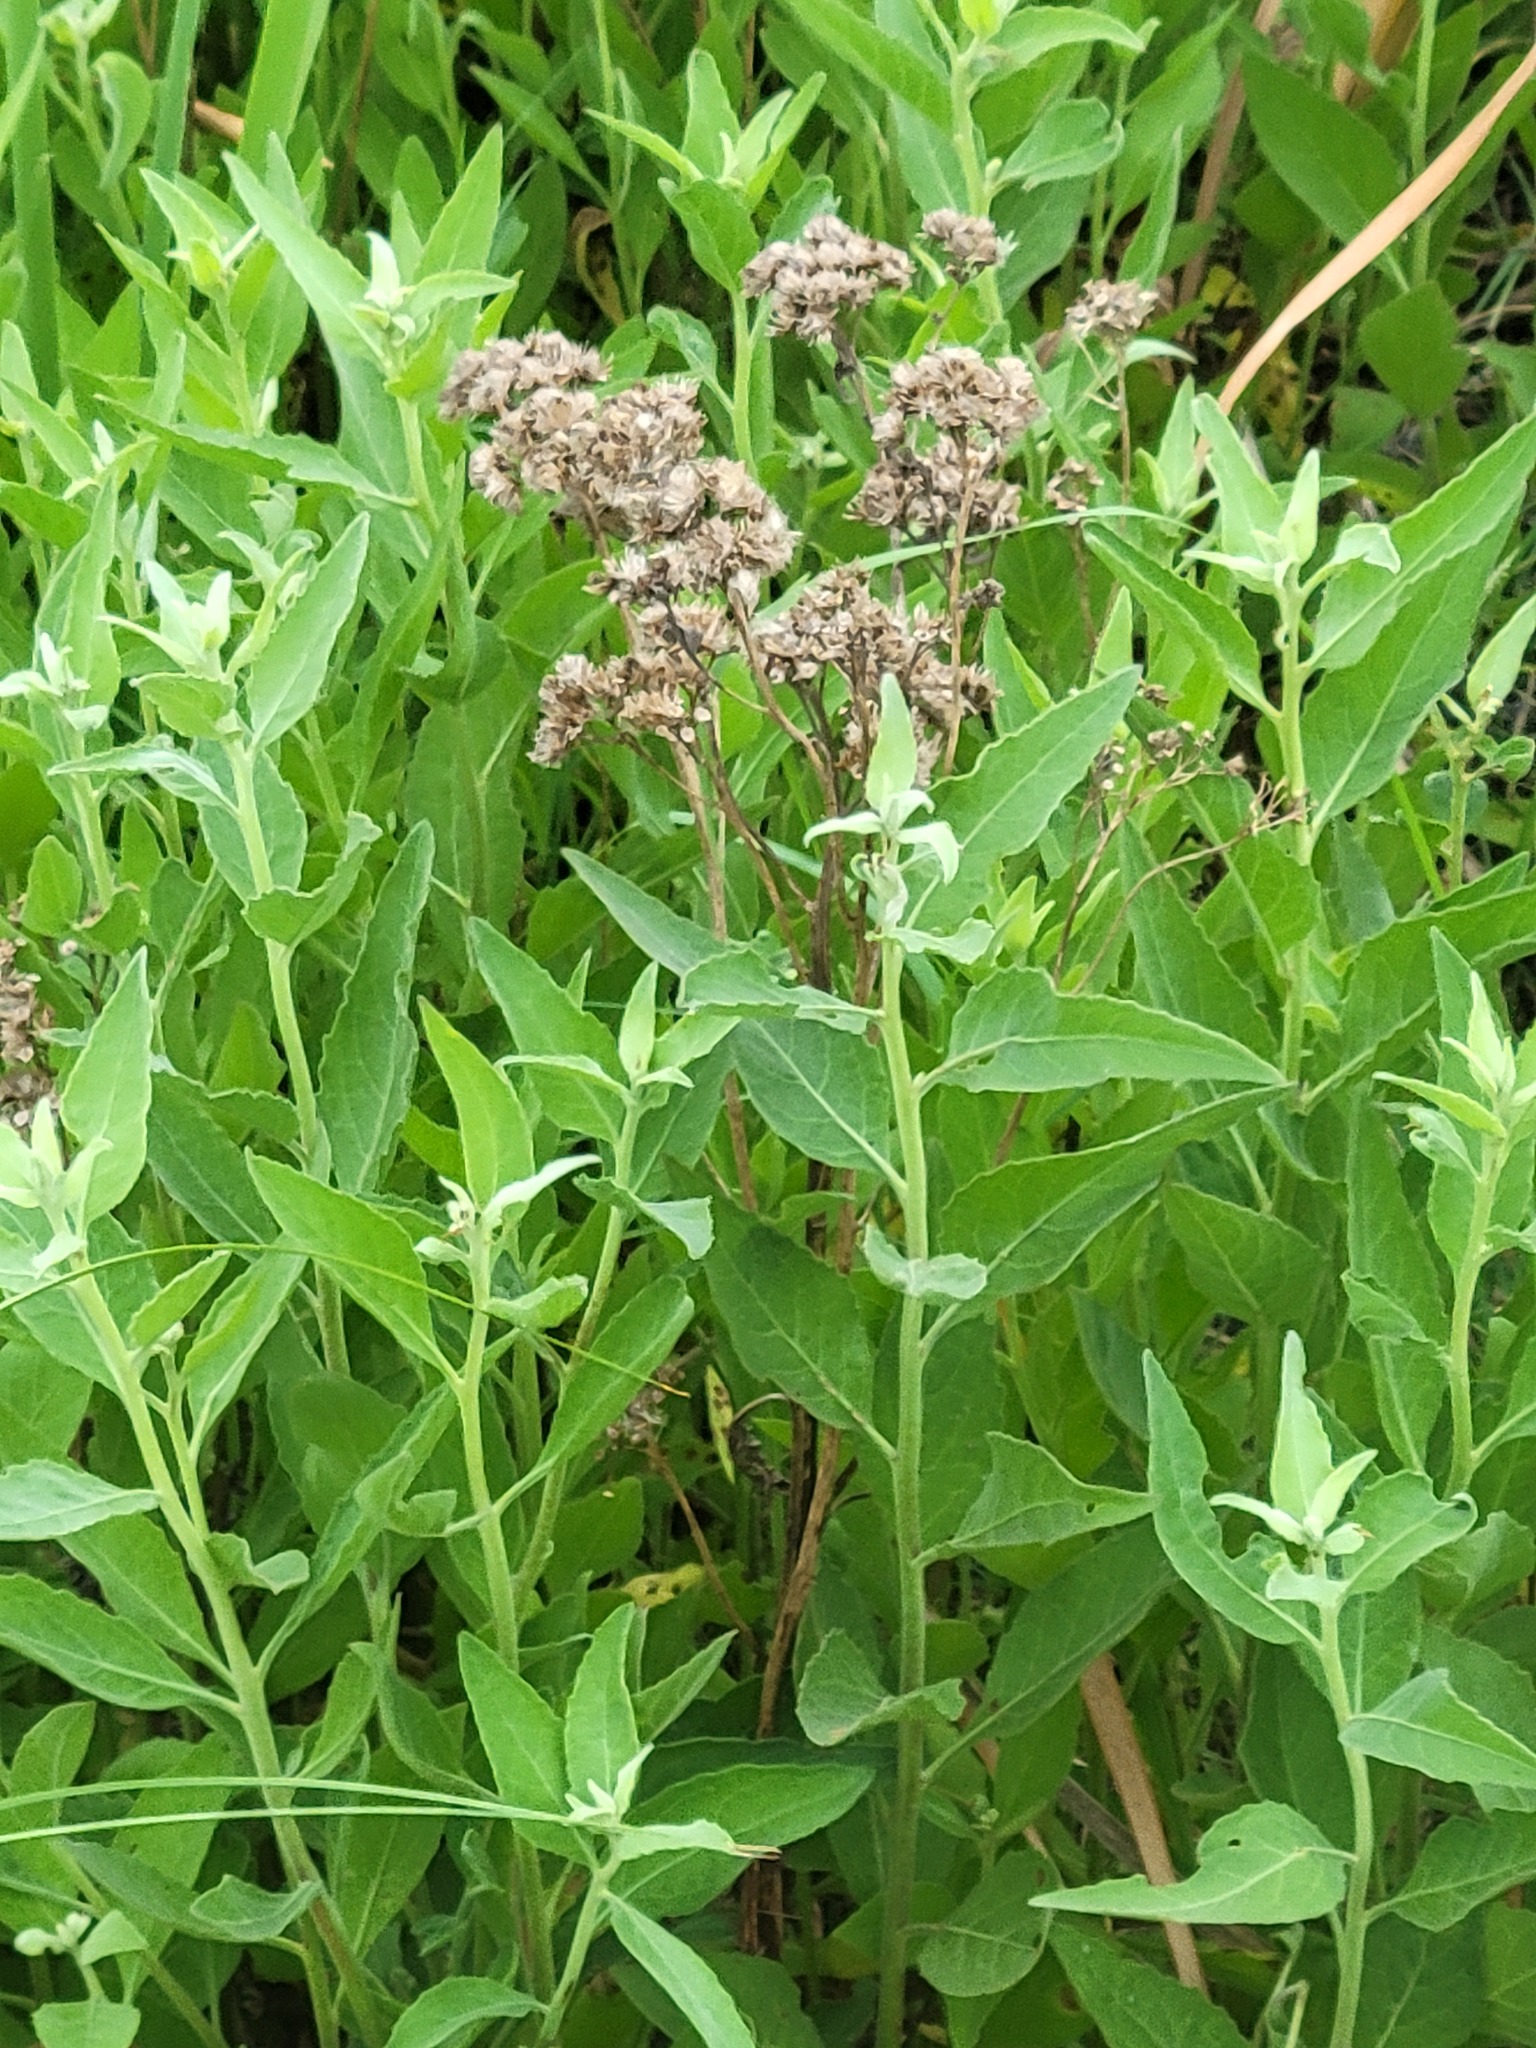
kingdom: Plantae
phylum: Tracheophyta
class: Magnoliopsida
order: Asterales
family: Asteraceae
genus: Pluchea
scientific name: Pluchea odorata
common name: Saltmarsh fleabane
